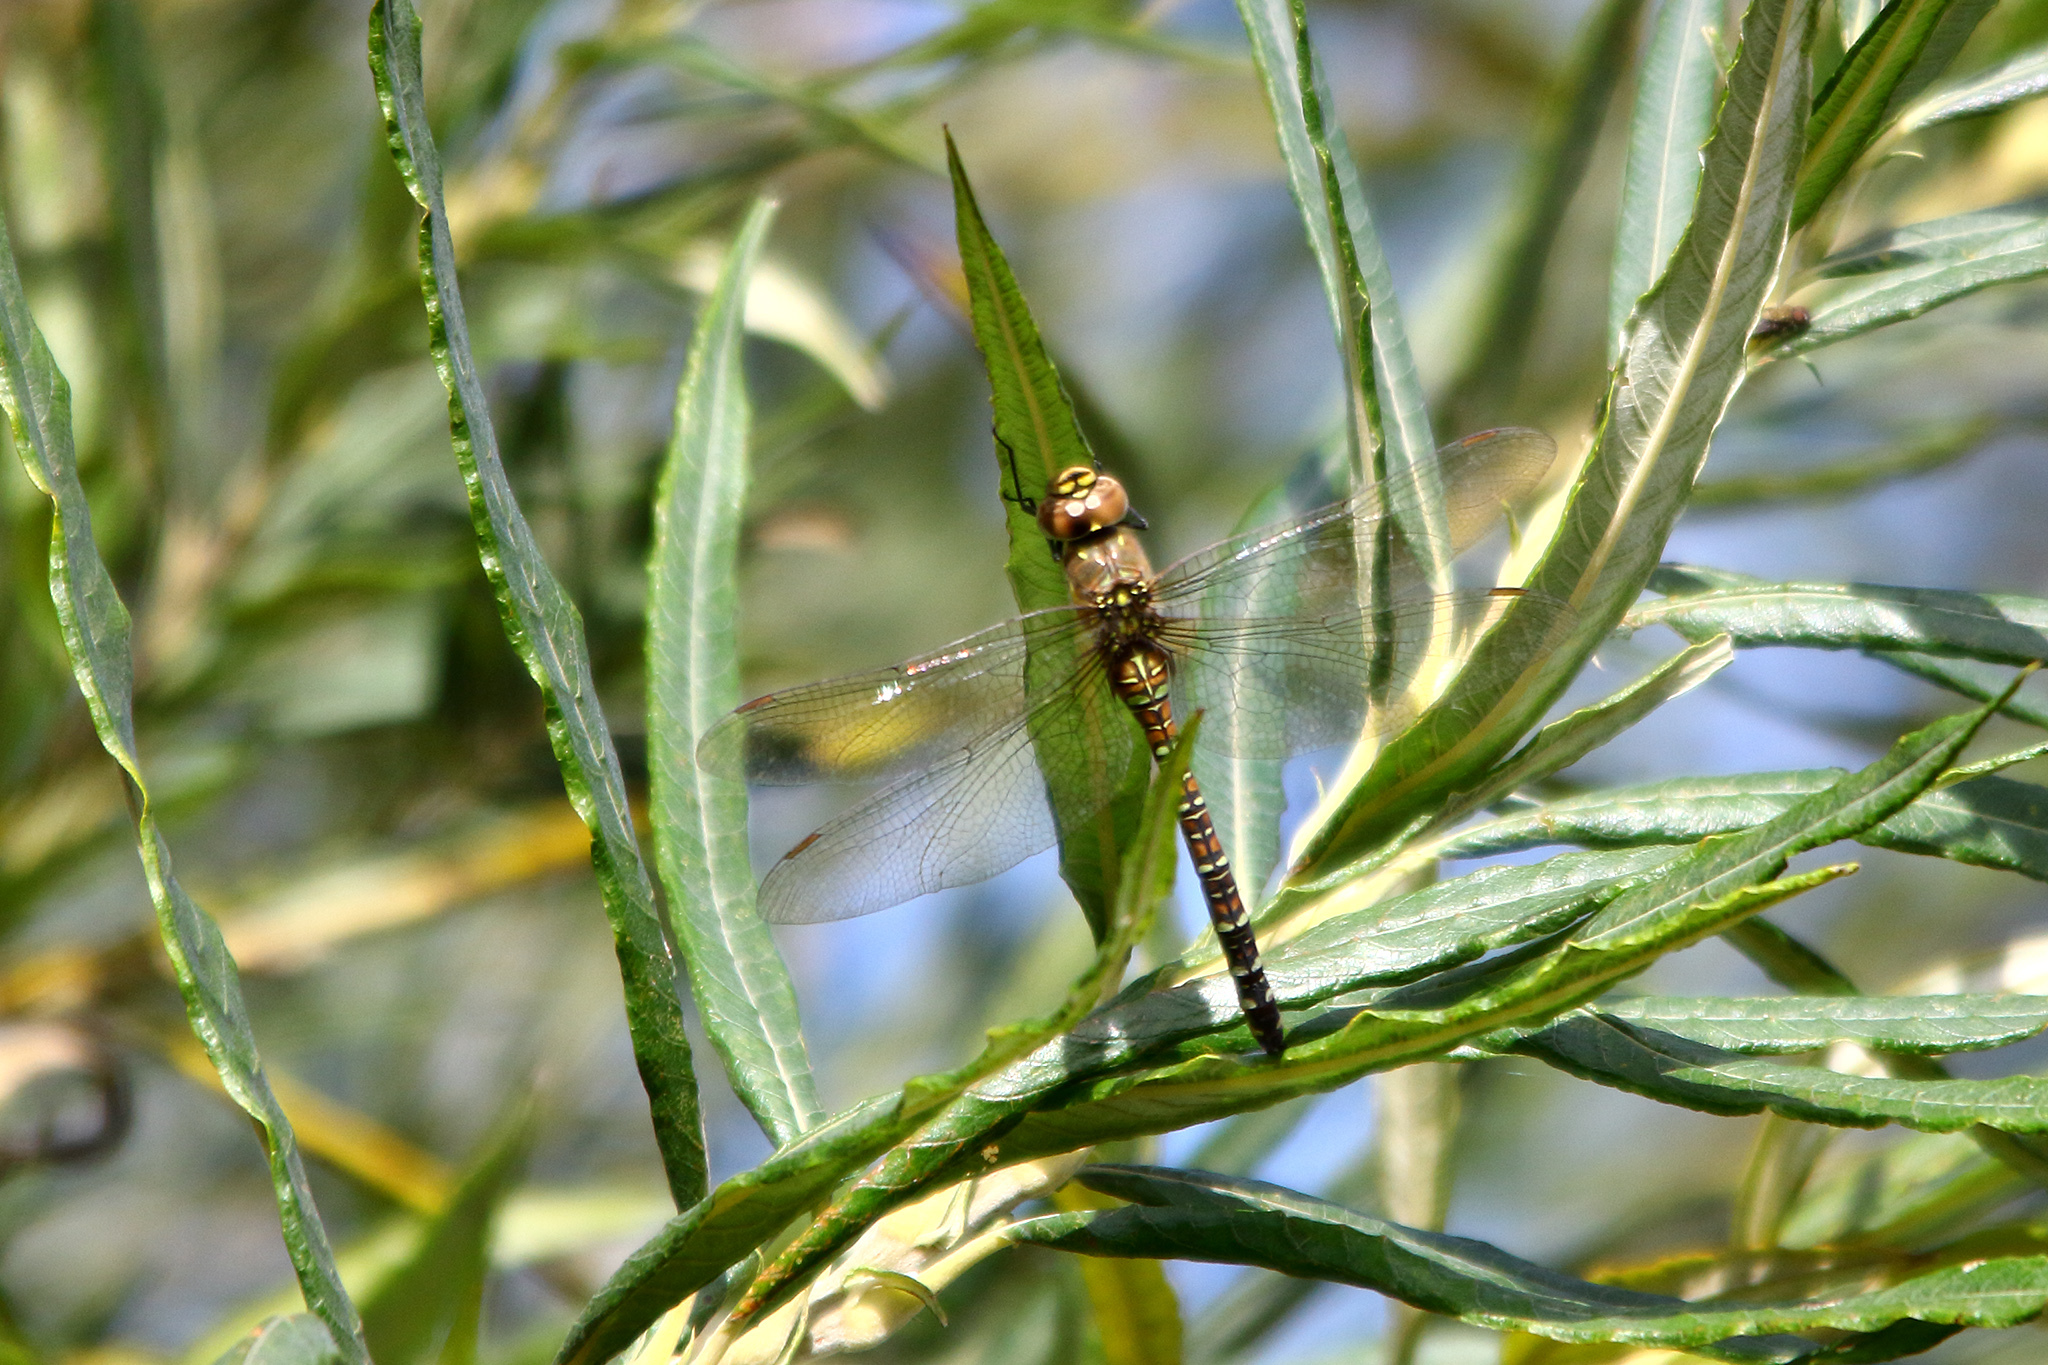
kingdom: Animalia
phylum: Arthropoda
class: Insecta
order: Odonata
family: Aeshnidae
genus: Aeshna
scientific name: Aeshna mixta
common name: Migrant hawker
